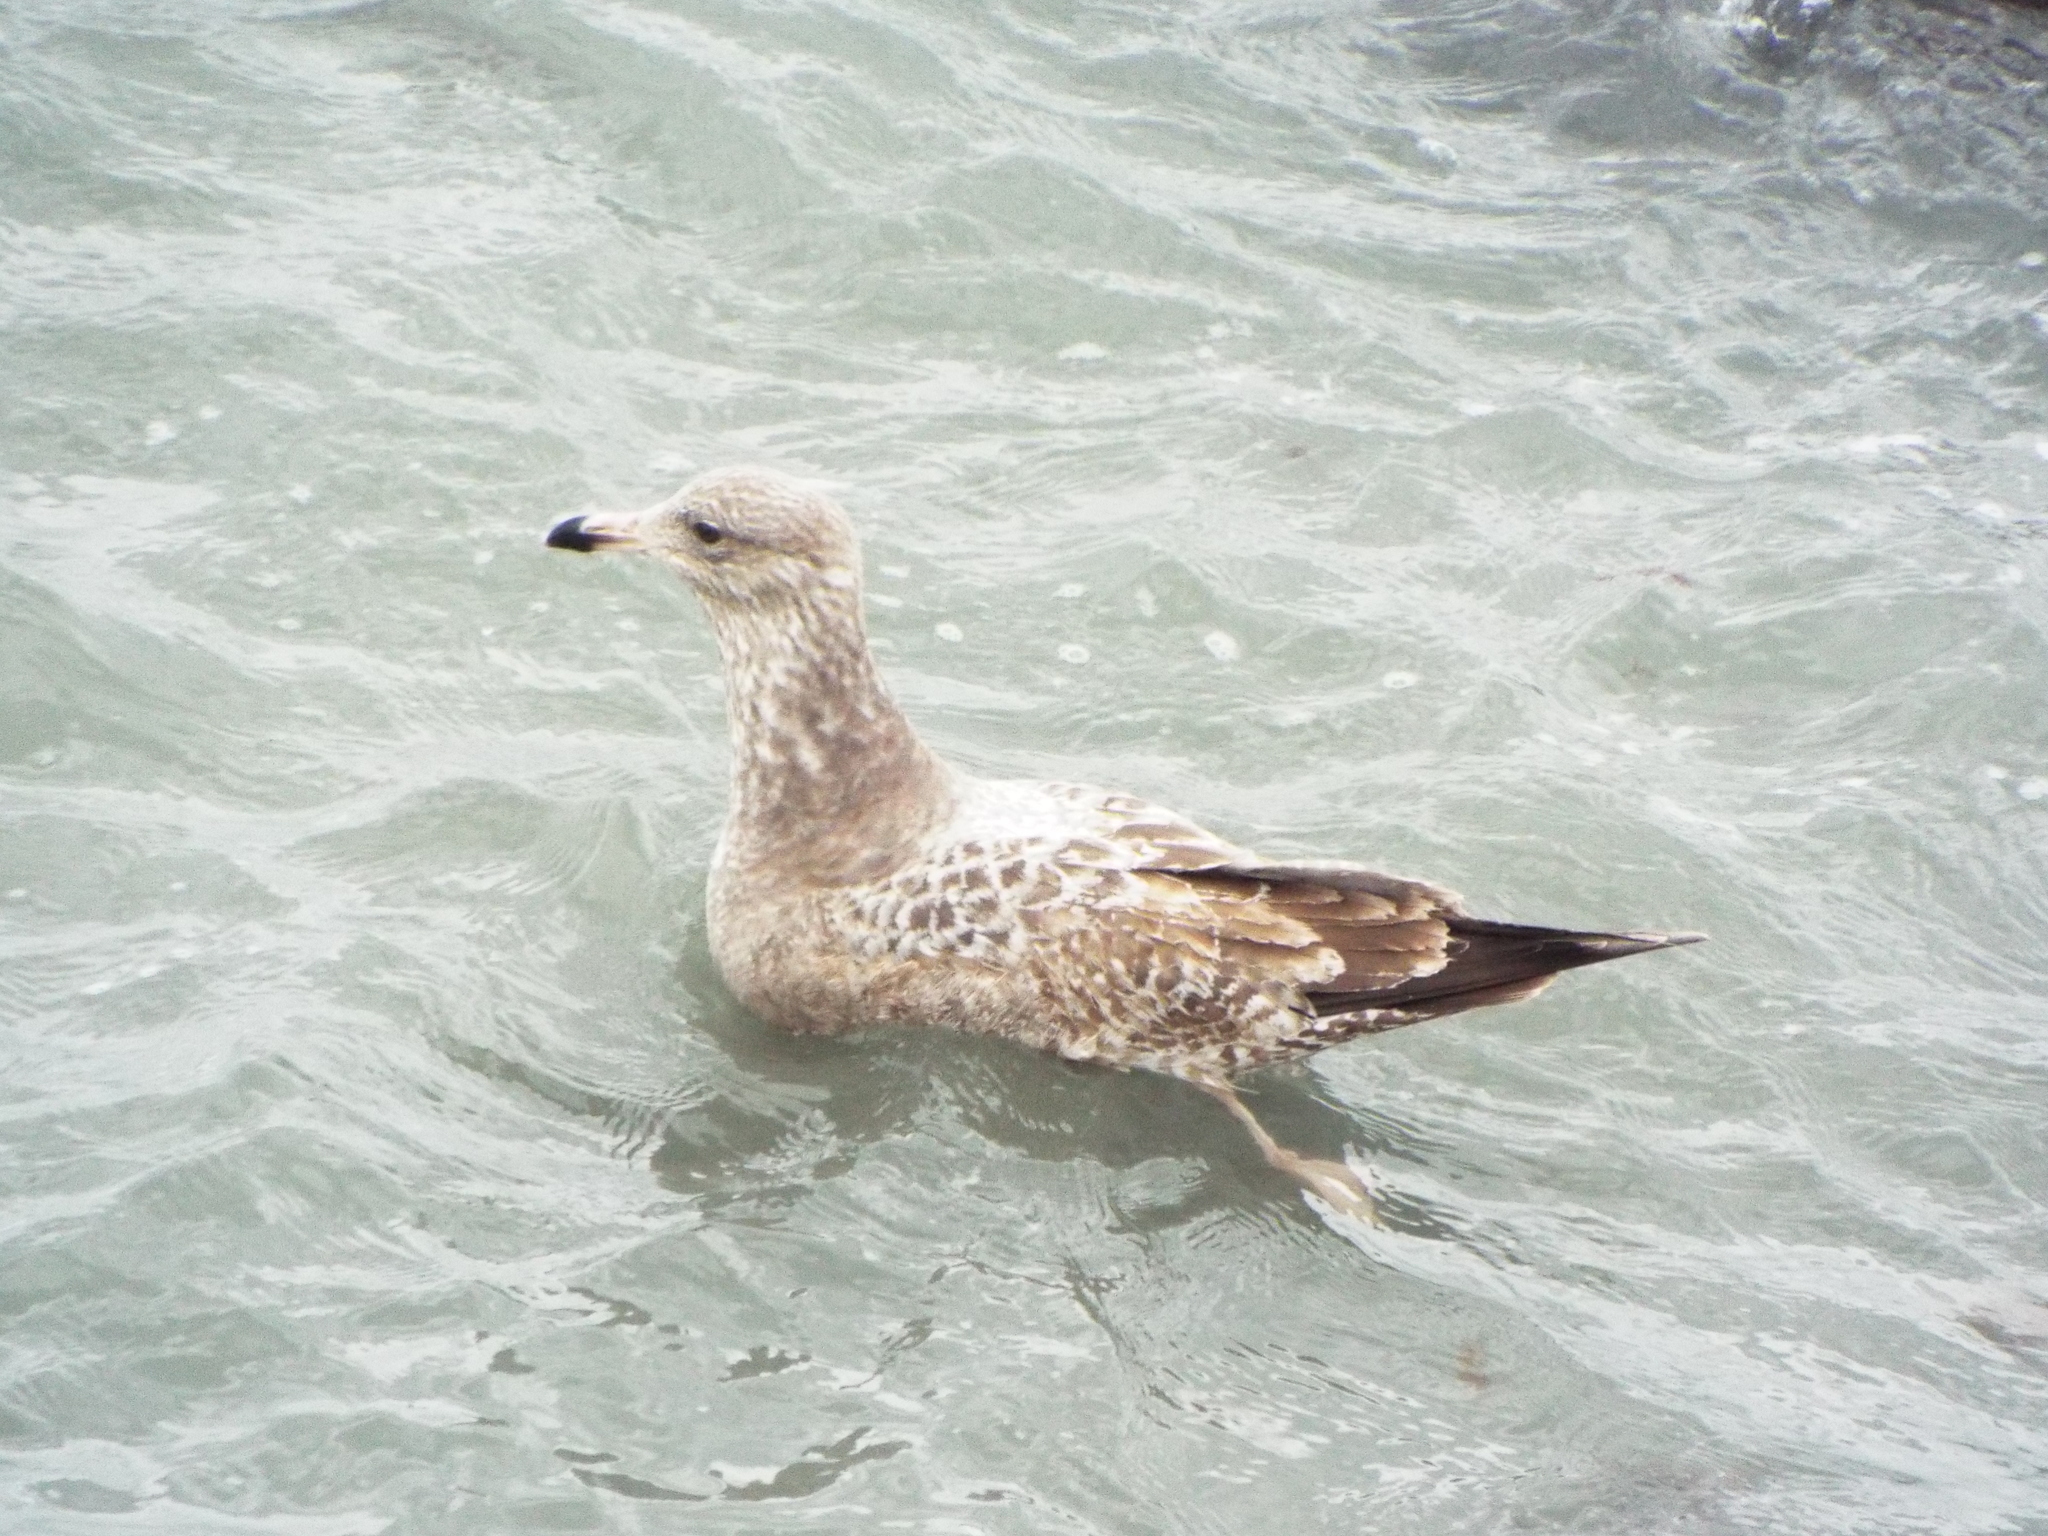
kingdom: Animalia
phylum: Chordata
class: Aves
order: Charadriiformes
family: Laridae
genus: Larus
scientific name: Larus argentatus
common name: Herring gull
